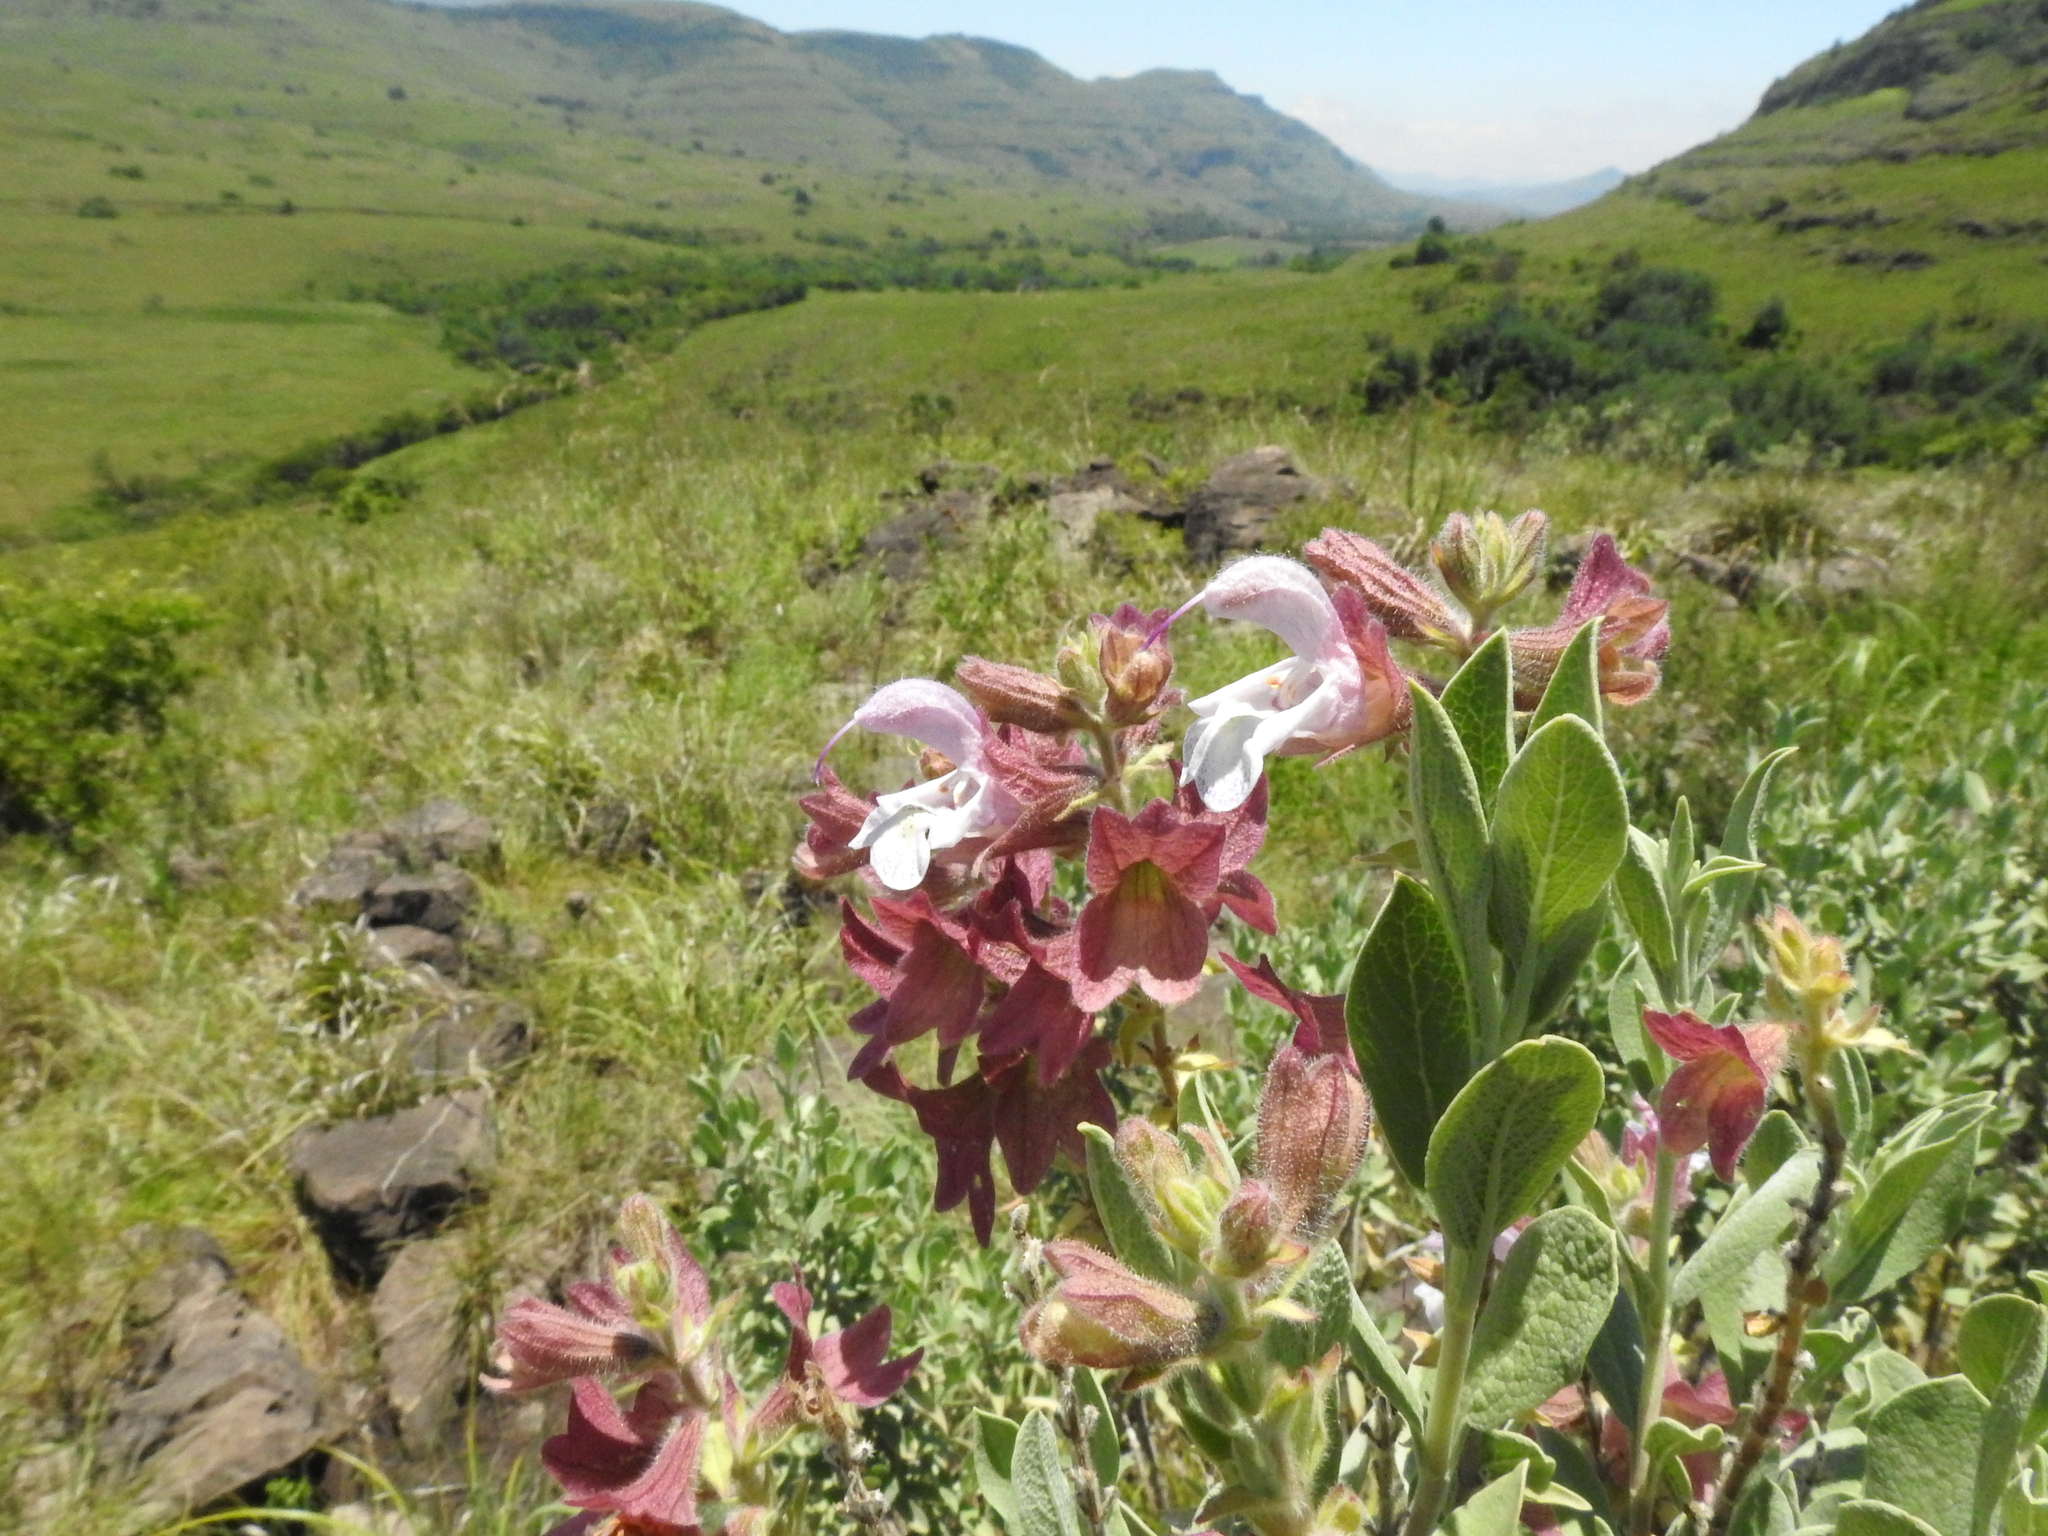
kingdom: Plantae
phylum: Tracheophyta
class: Magnoliopsida
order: Lamiales
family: Lamiaceae
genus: Salvia
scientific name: Salvia dolomitica
